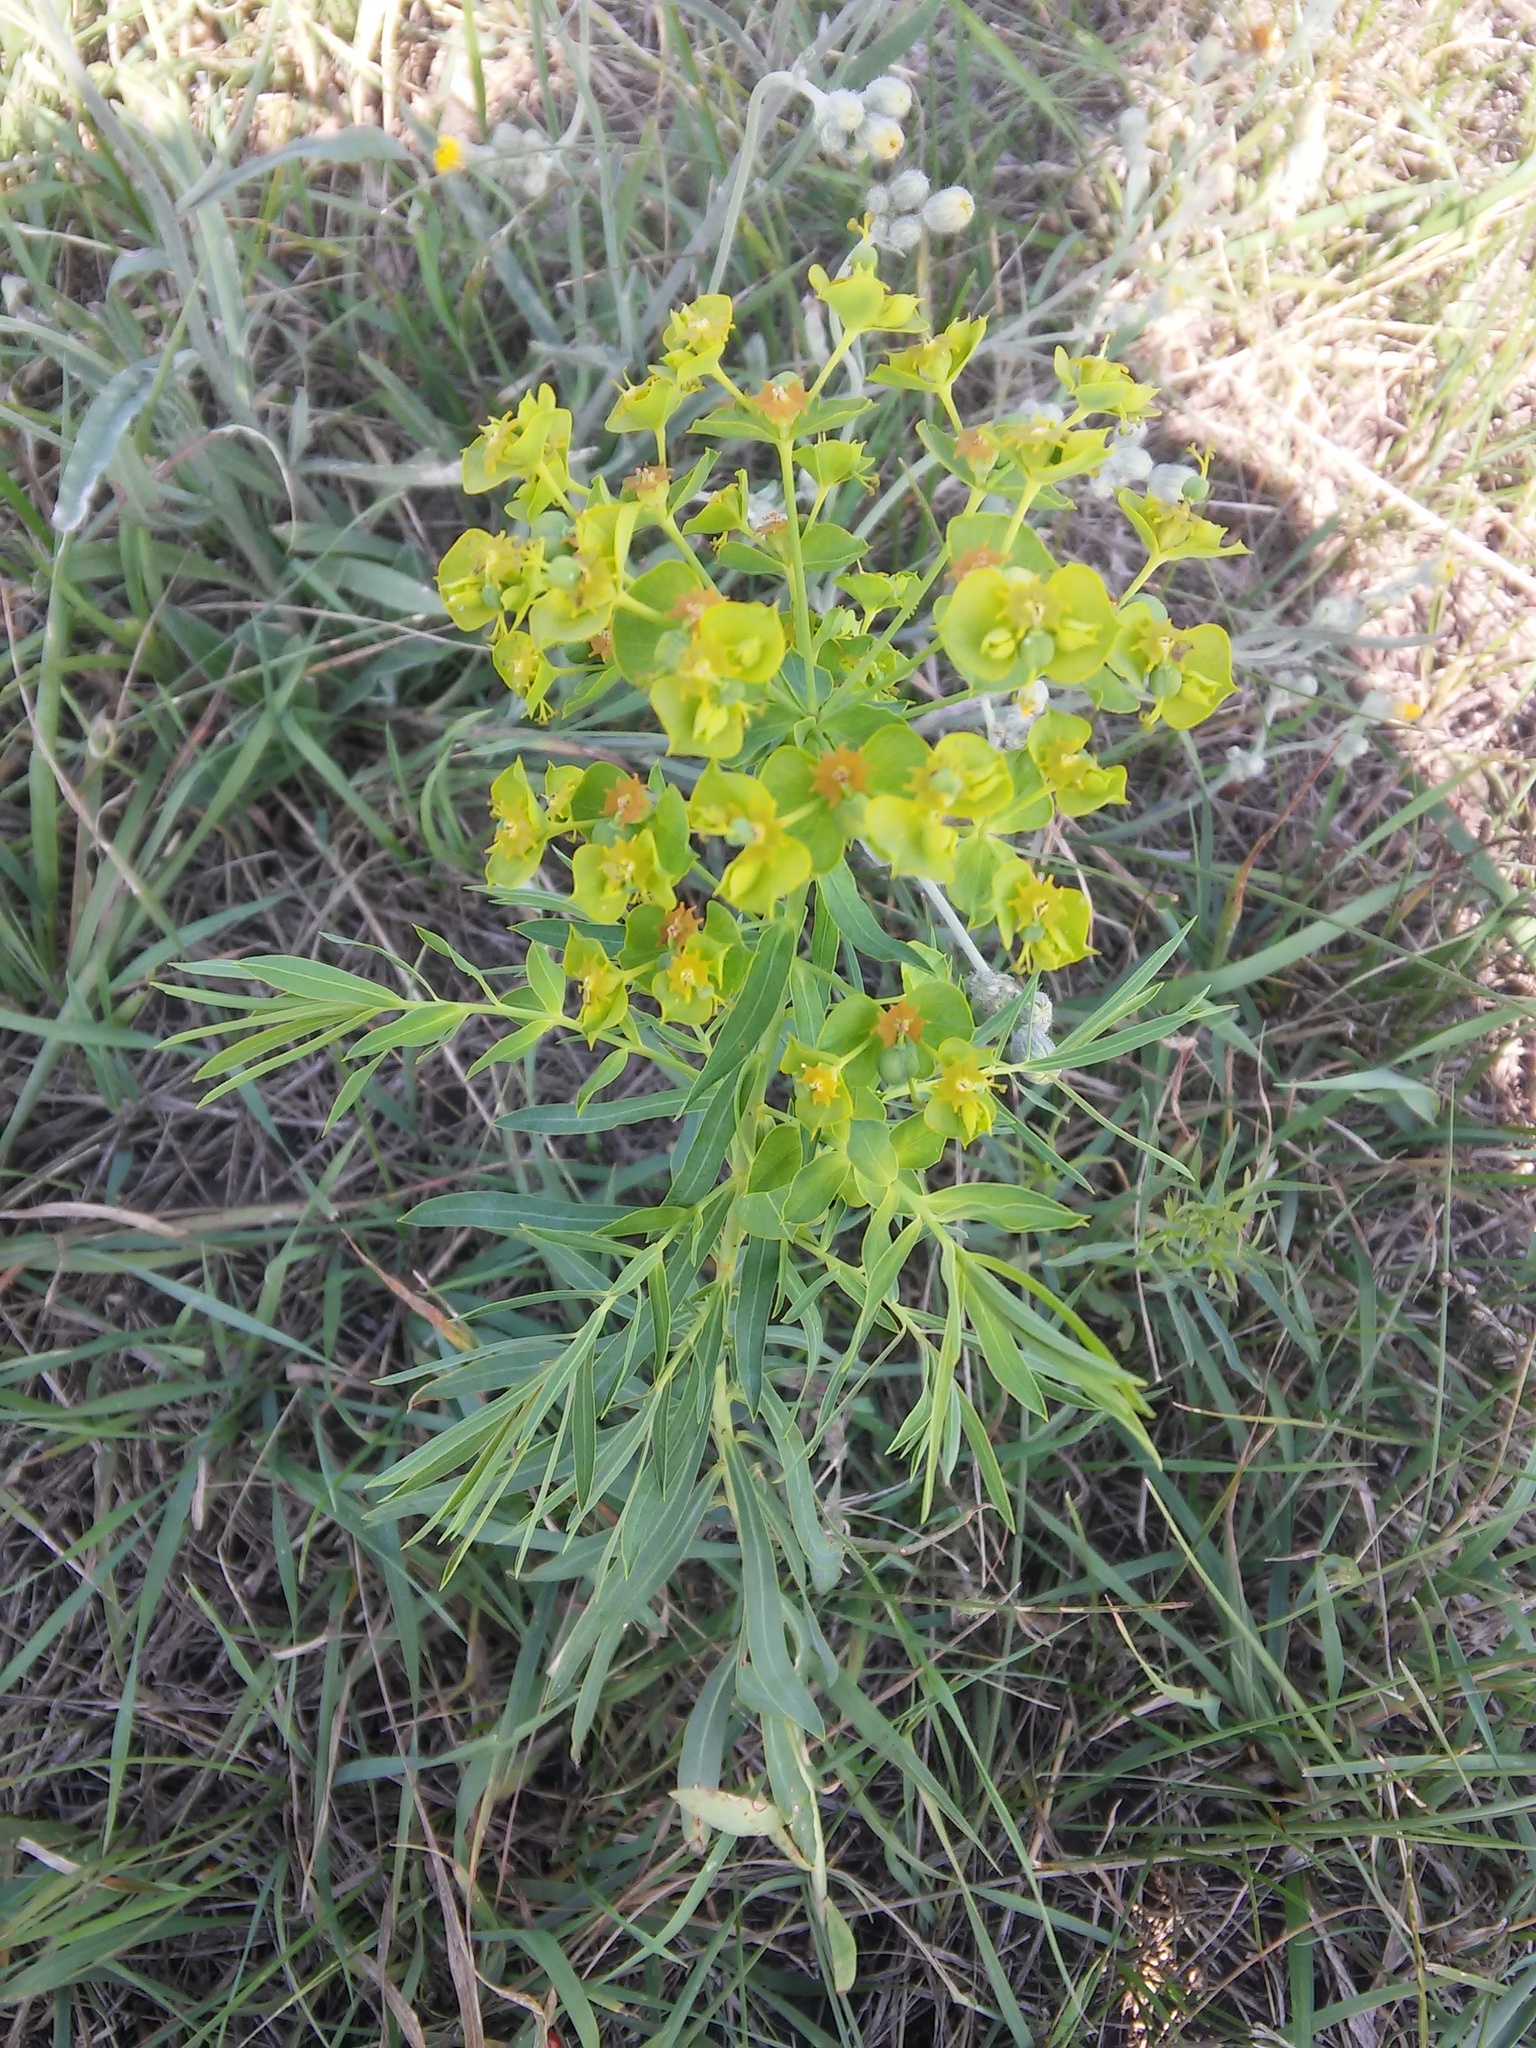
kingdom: Plantae
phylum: Tracheophyta
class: Magnoliopsida
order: Malpighiales
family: Euphorbiaceae
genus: Euphorbia
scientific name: Euphorbia virgata
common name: Leafy spurge
